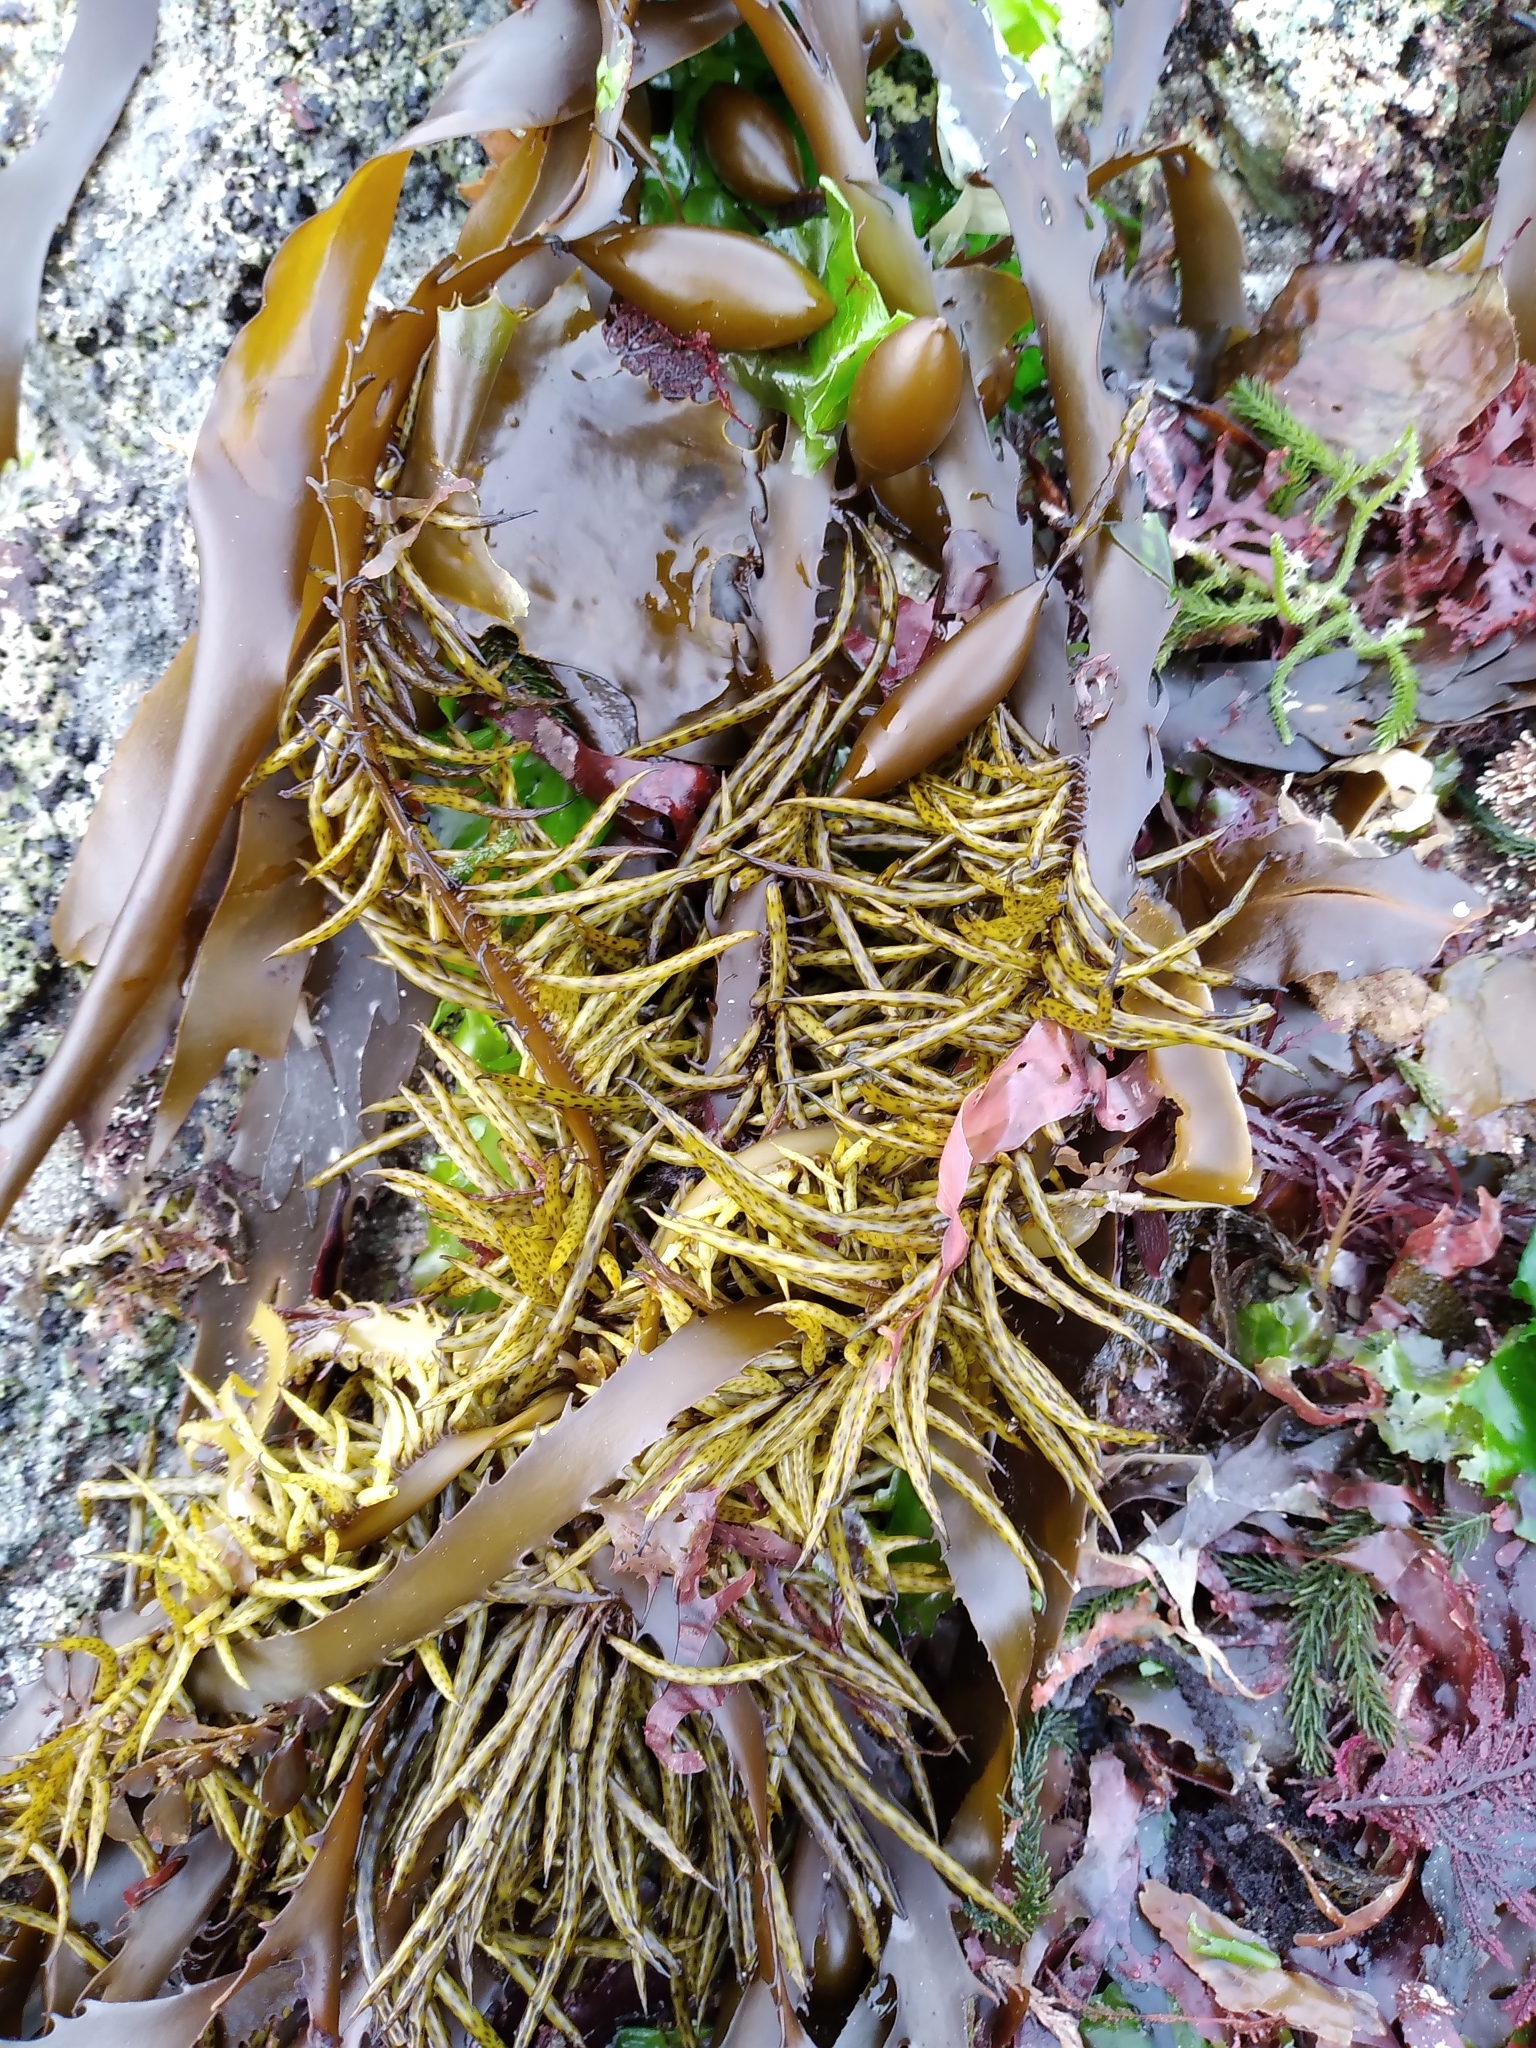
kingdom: Chromista
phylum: Ochrophyta
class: Phaeophyceae
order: Fucales
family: Seirococcaceae
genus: Marginariella
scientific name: Marginariella boryana
